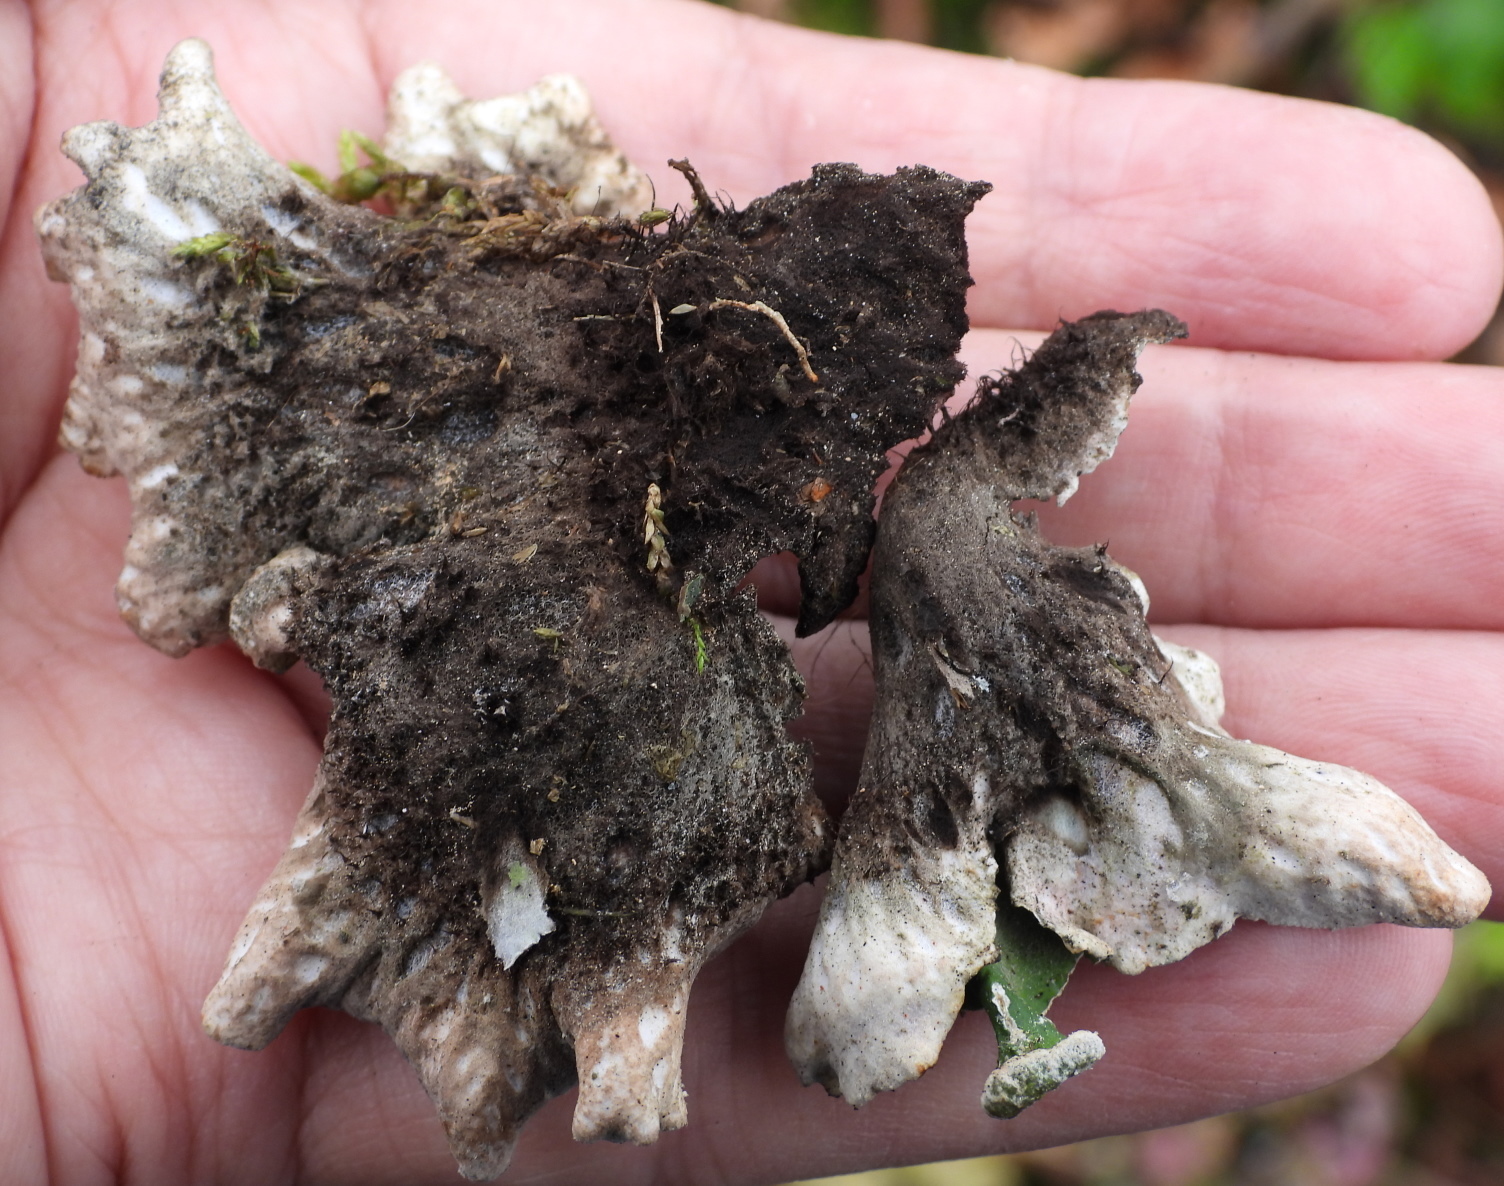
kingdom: Fungi
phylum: Ascomycota
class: Lecanoromycetes
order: Peltigerales
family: Peltigeraceae
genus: Peltigera
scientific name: Peltigera leucophlebia
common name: Ruffled freckle pelt lichen
